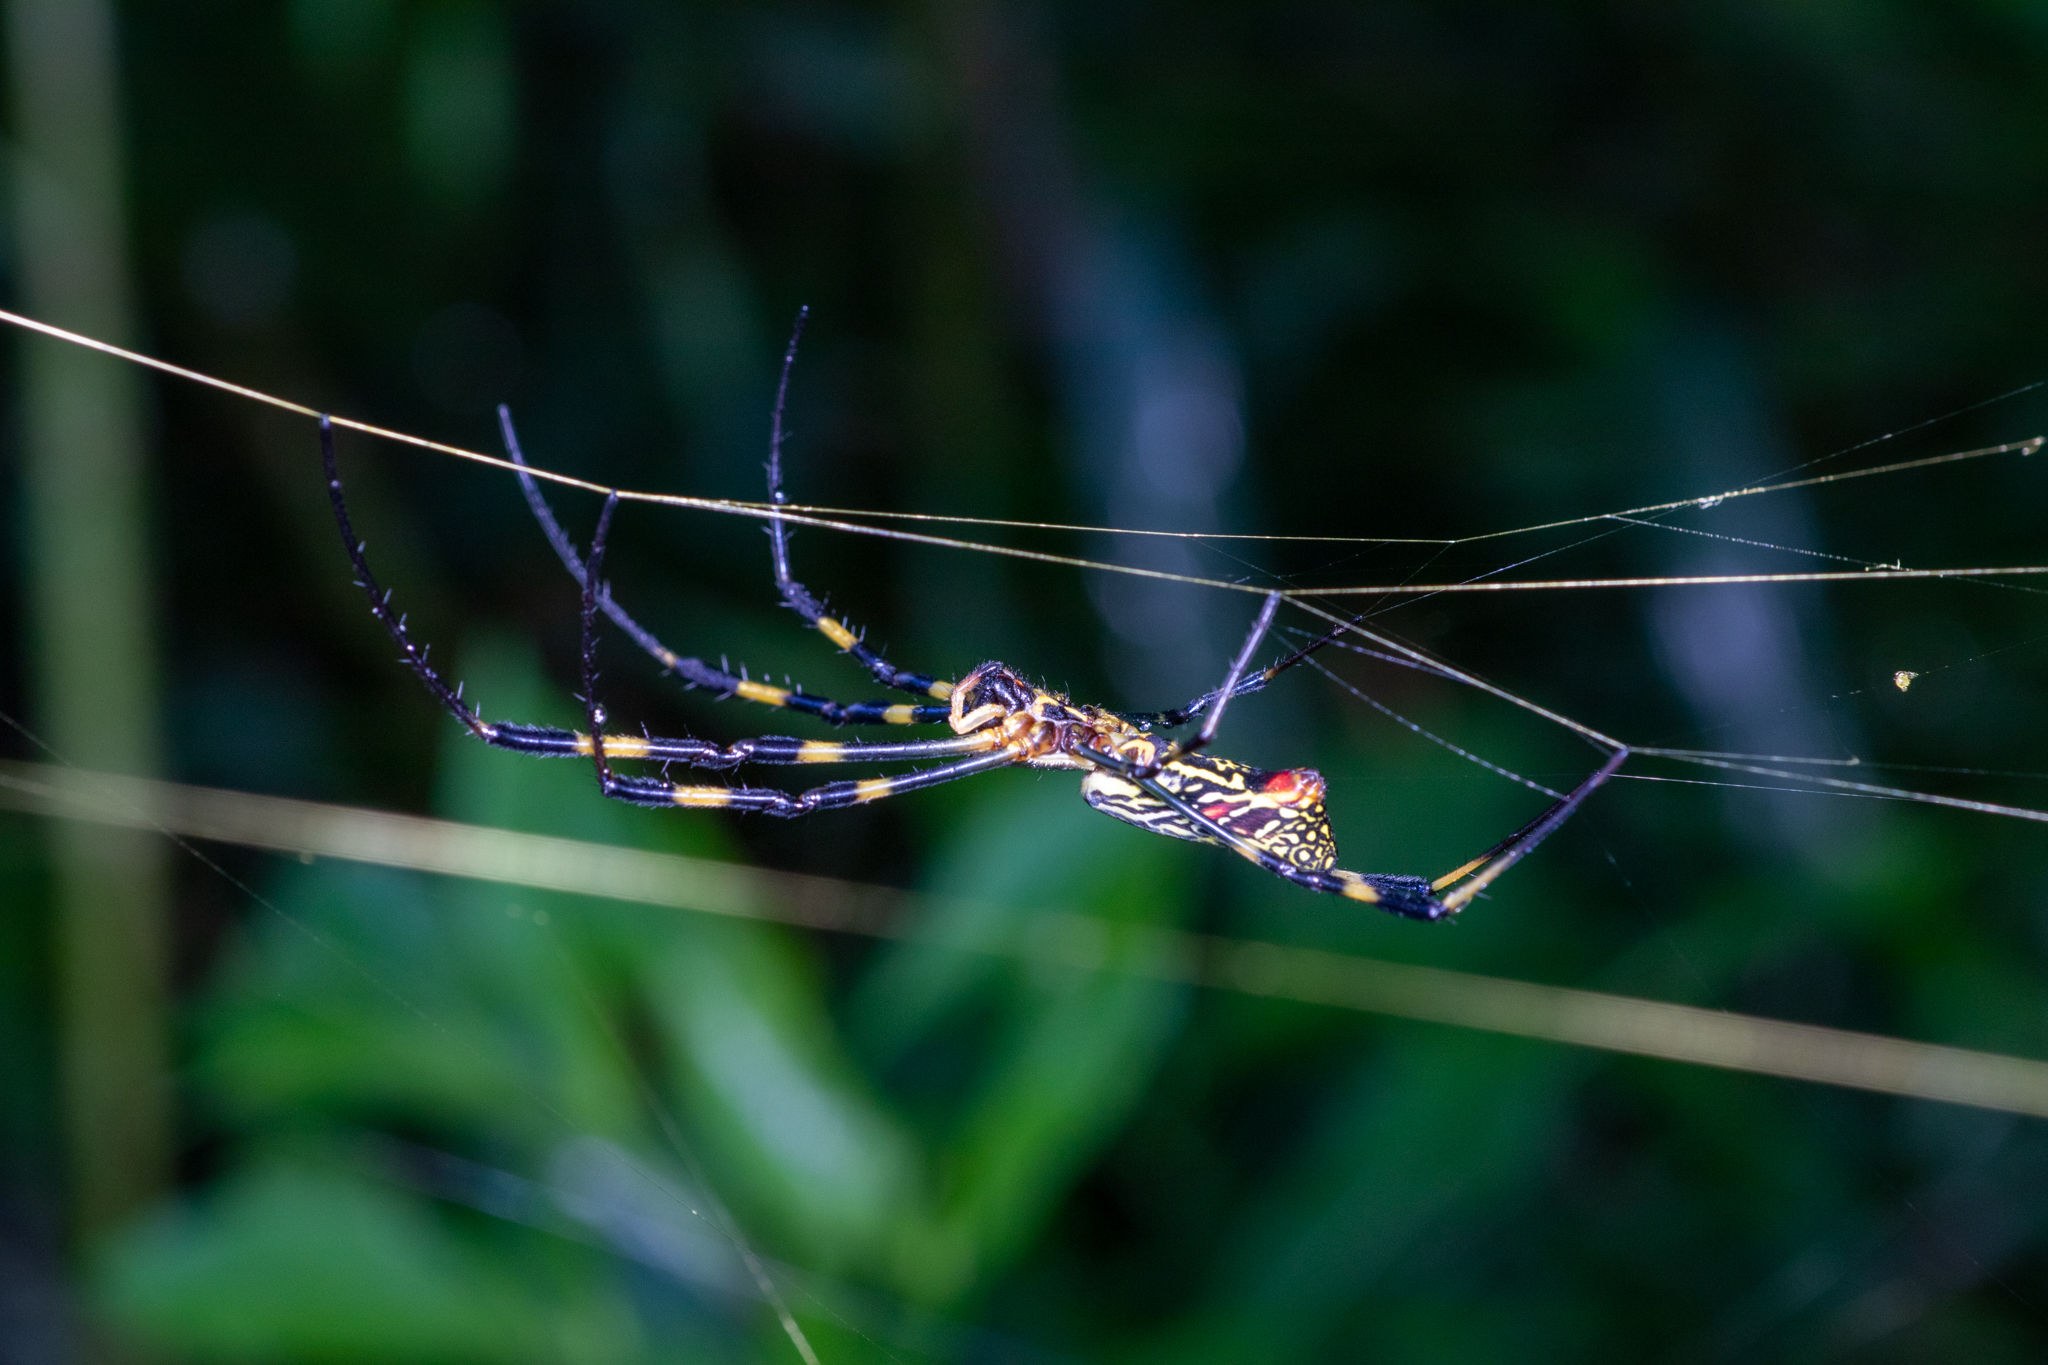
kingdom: Animalia
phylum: Arthropoda
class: Arachnida
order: Araneae
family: Araneidae
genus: Trichonephila
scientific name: Trichonephila clavata
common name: Jorō spider
